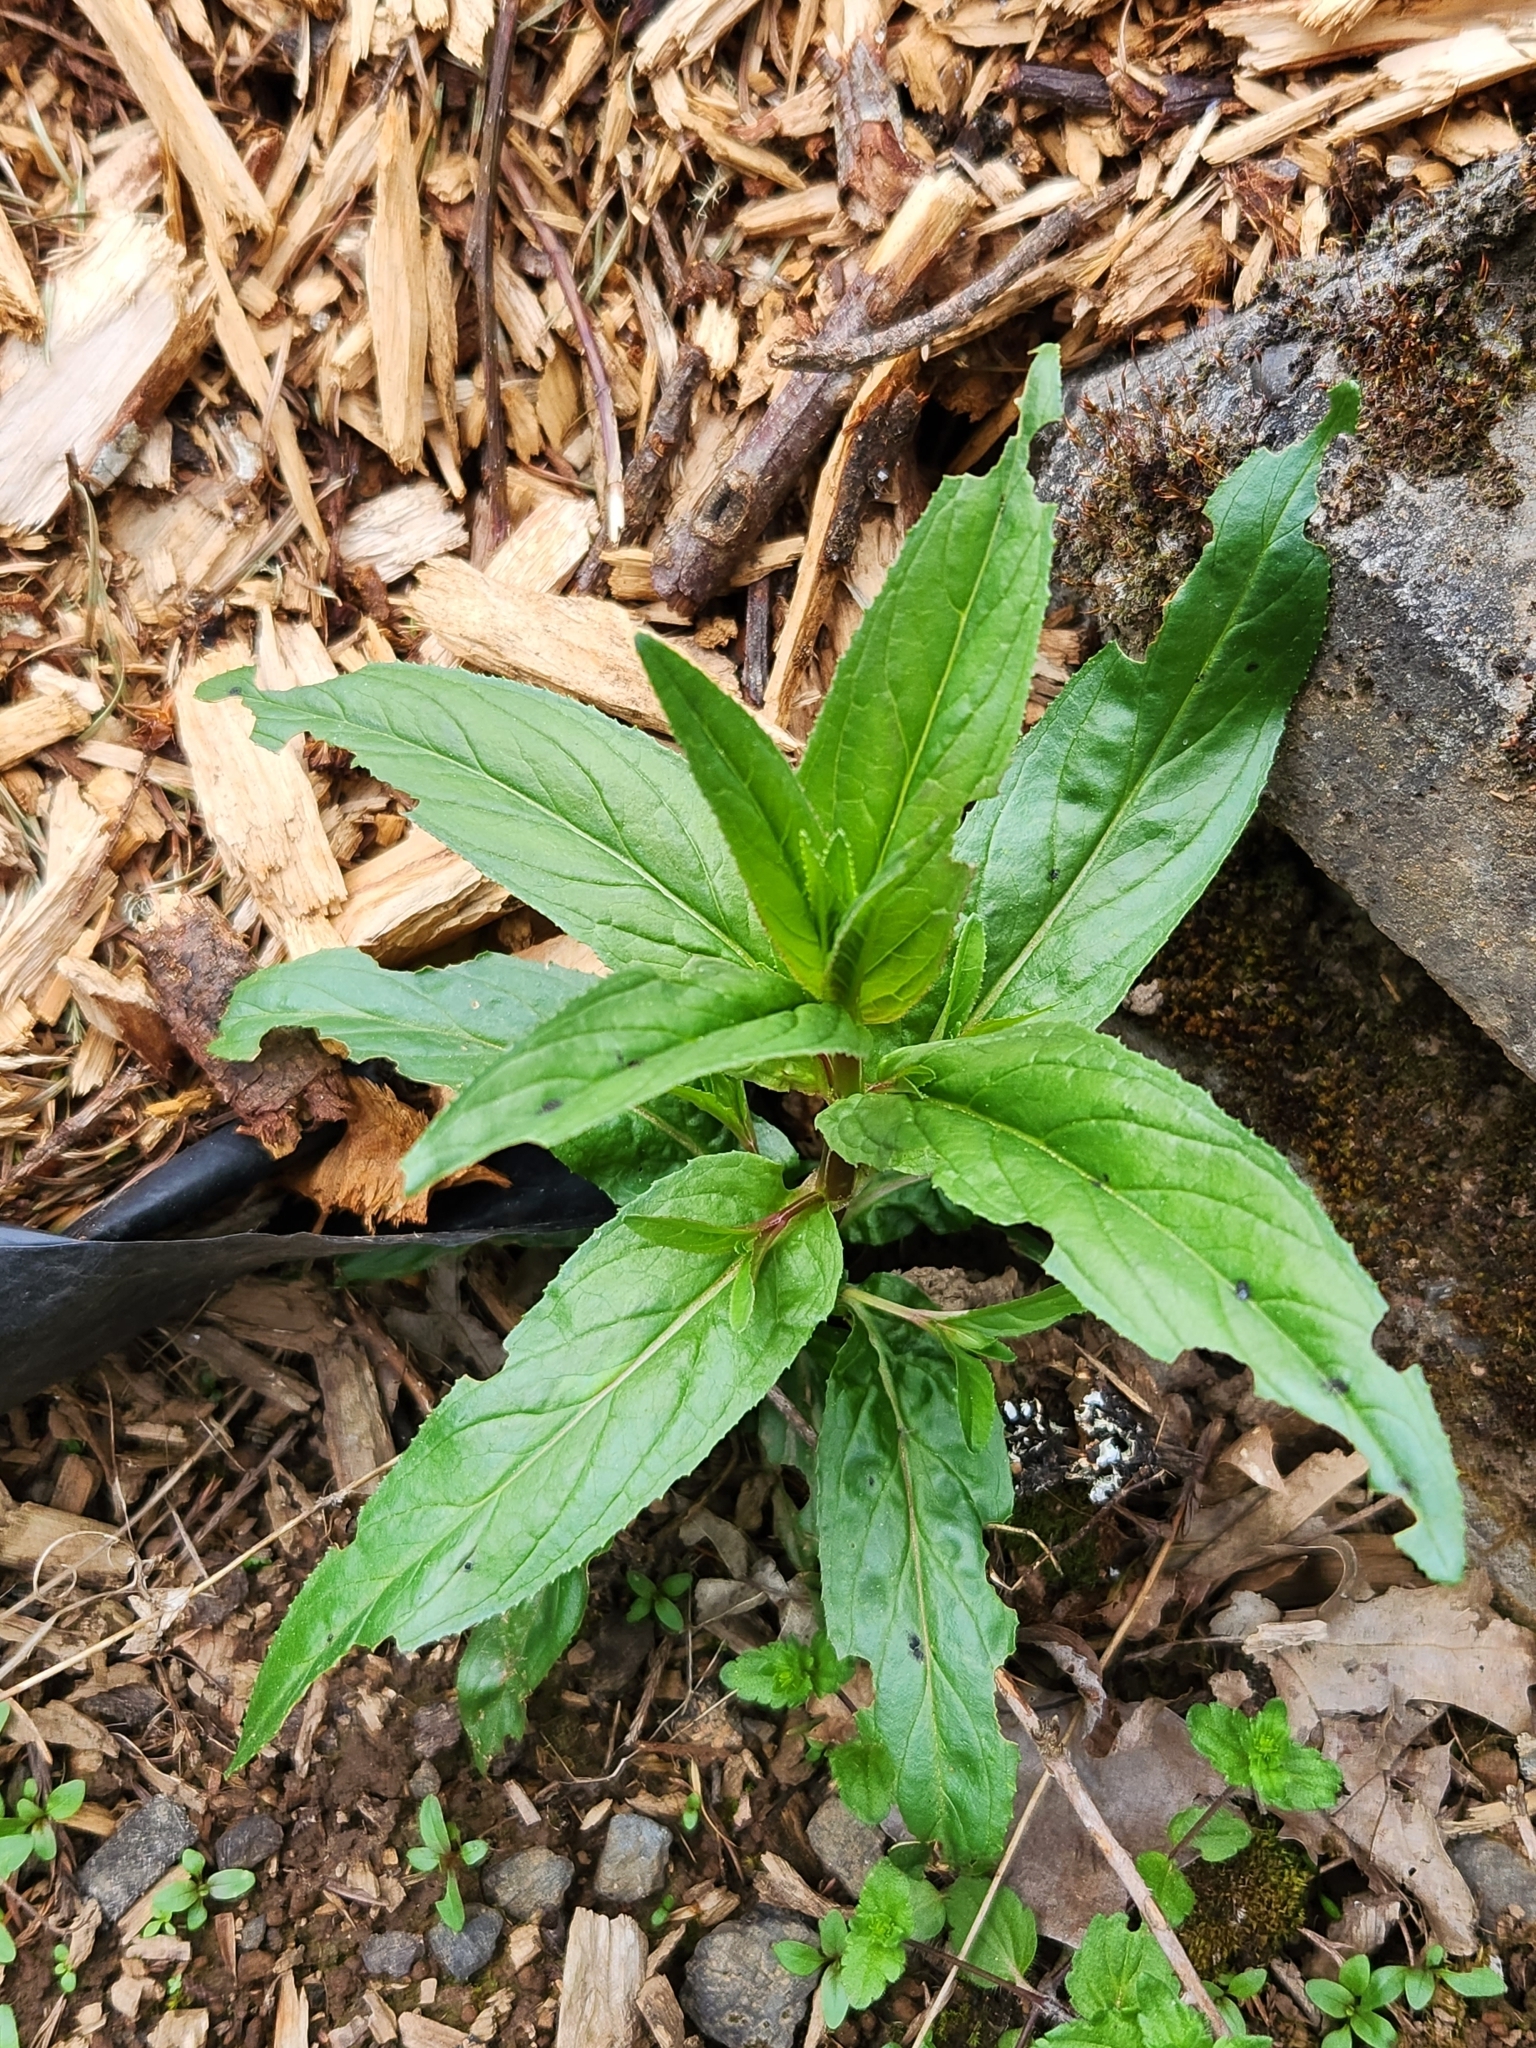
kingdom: Plantae
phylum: Tracheophyta
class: Magnoliopsida
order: Myrtales
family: Onagraceae
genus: Epilobium
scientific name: Epilobium ciliatum
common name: American willowherb
